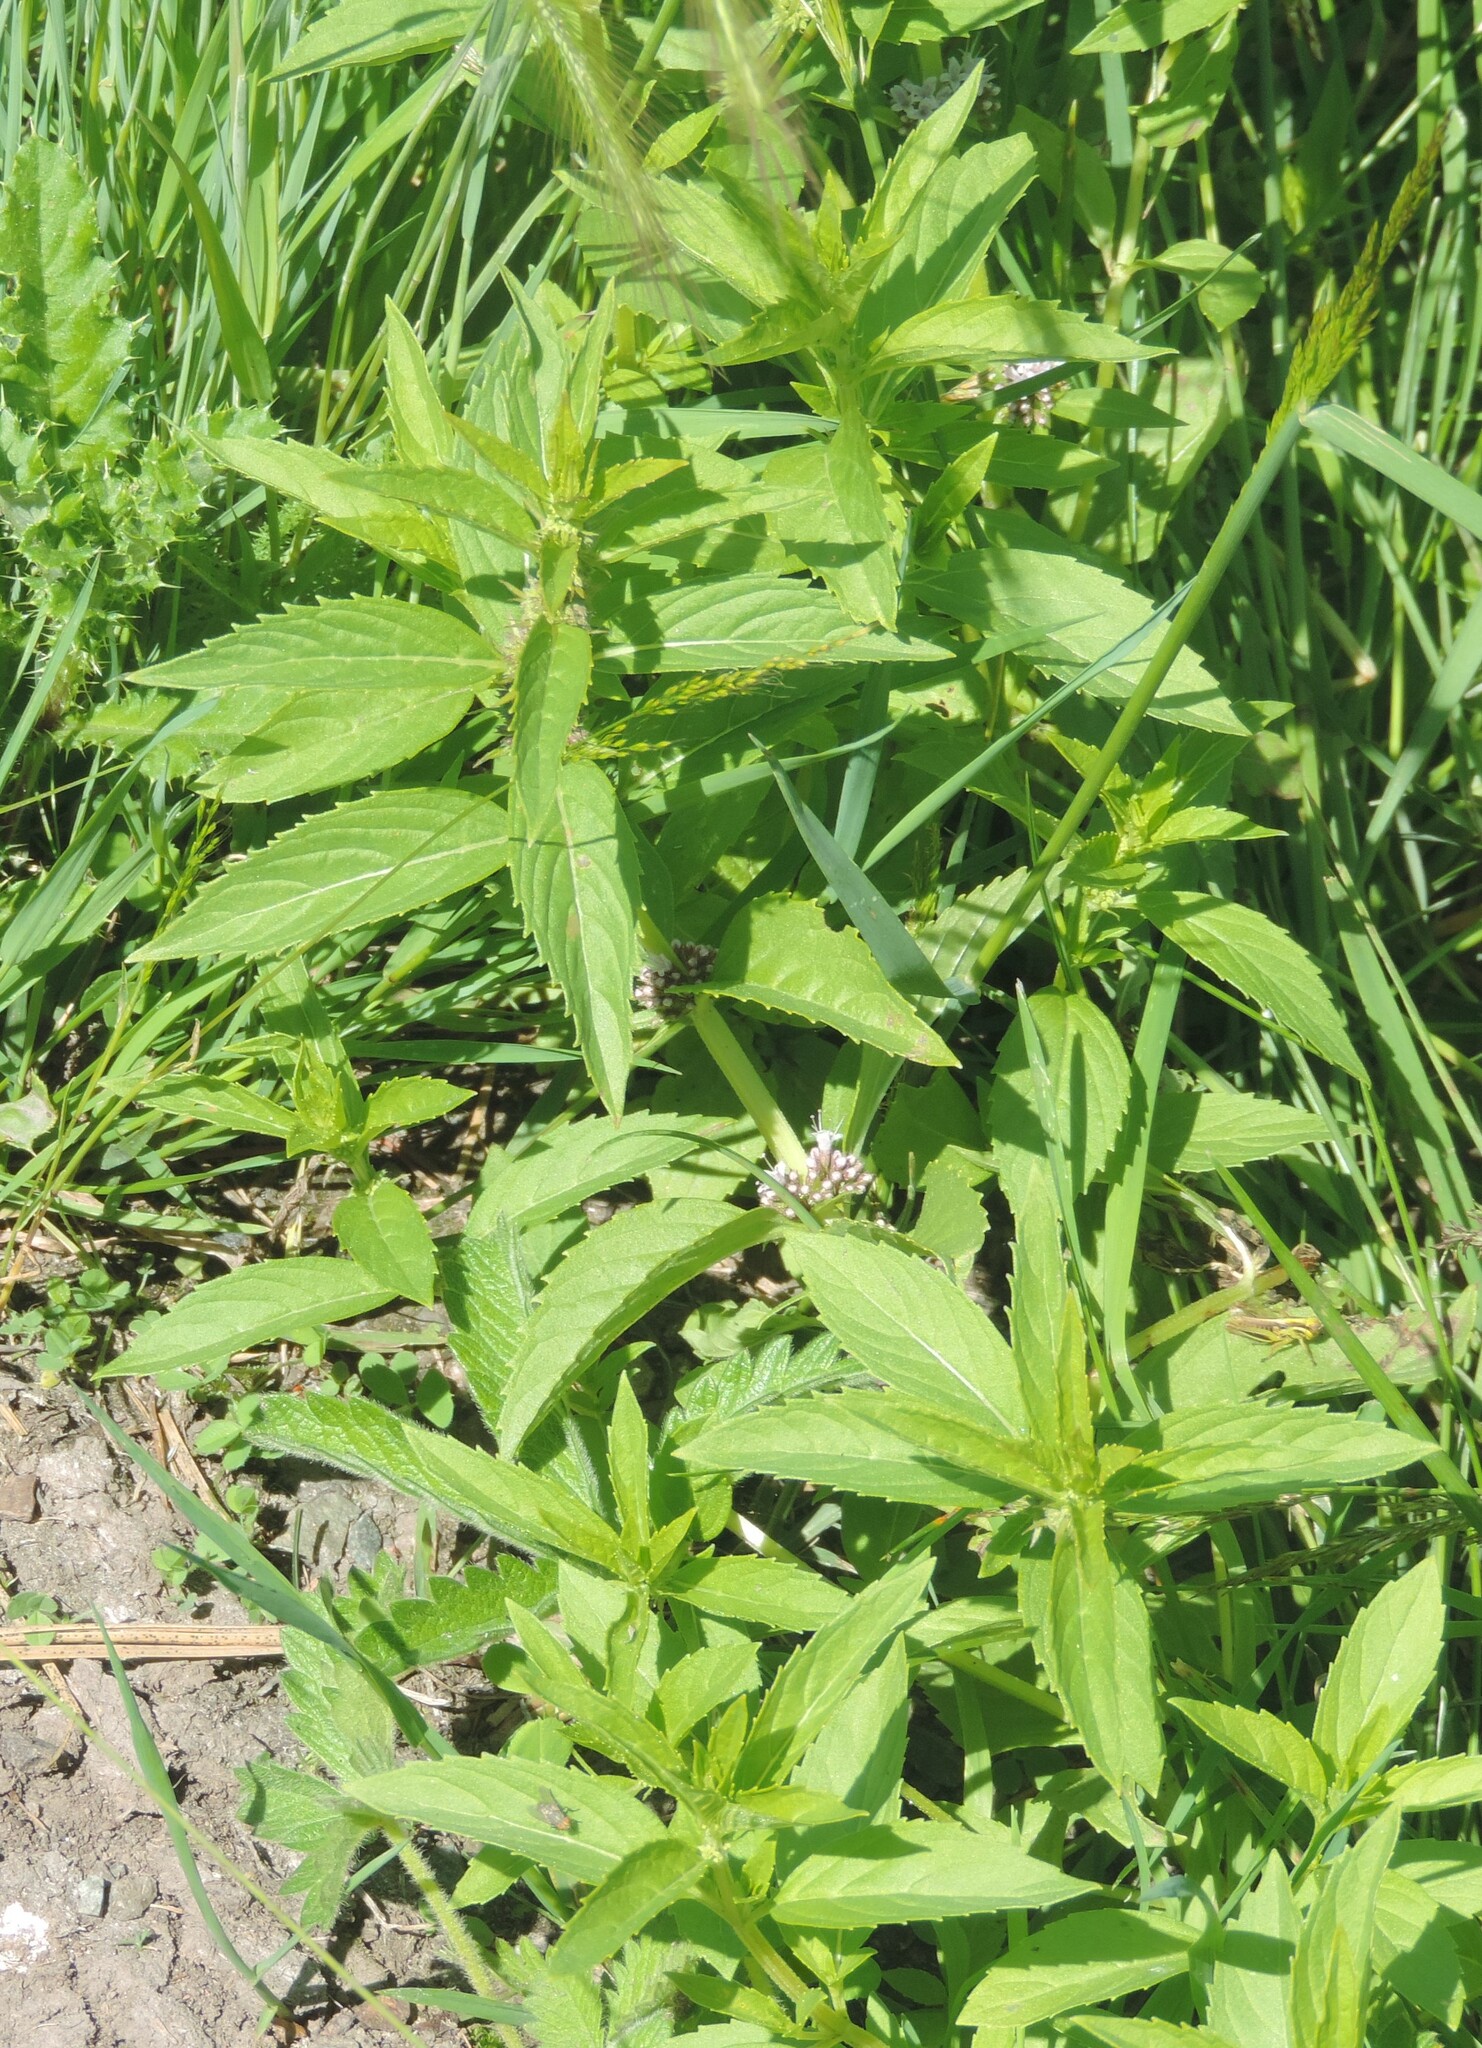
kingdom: Plantae
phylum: Tracheophyta
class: Magnoliopsida
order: Lamiales
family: Lamiaceae
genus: Mentha
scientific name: Mentha canadensis
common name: American corn mint
